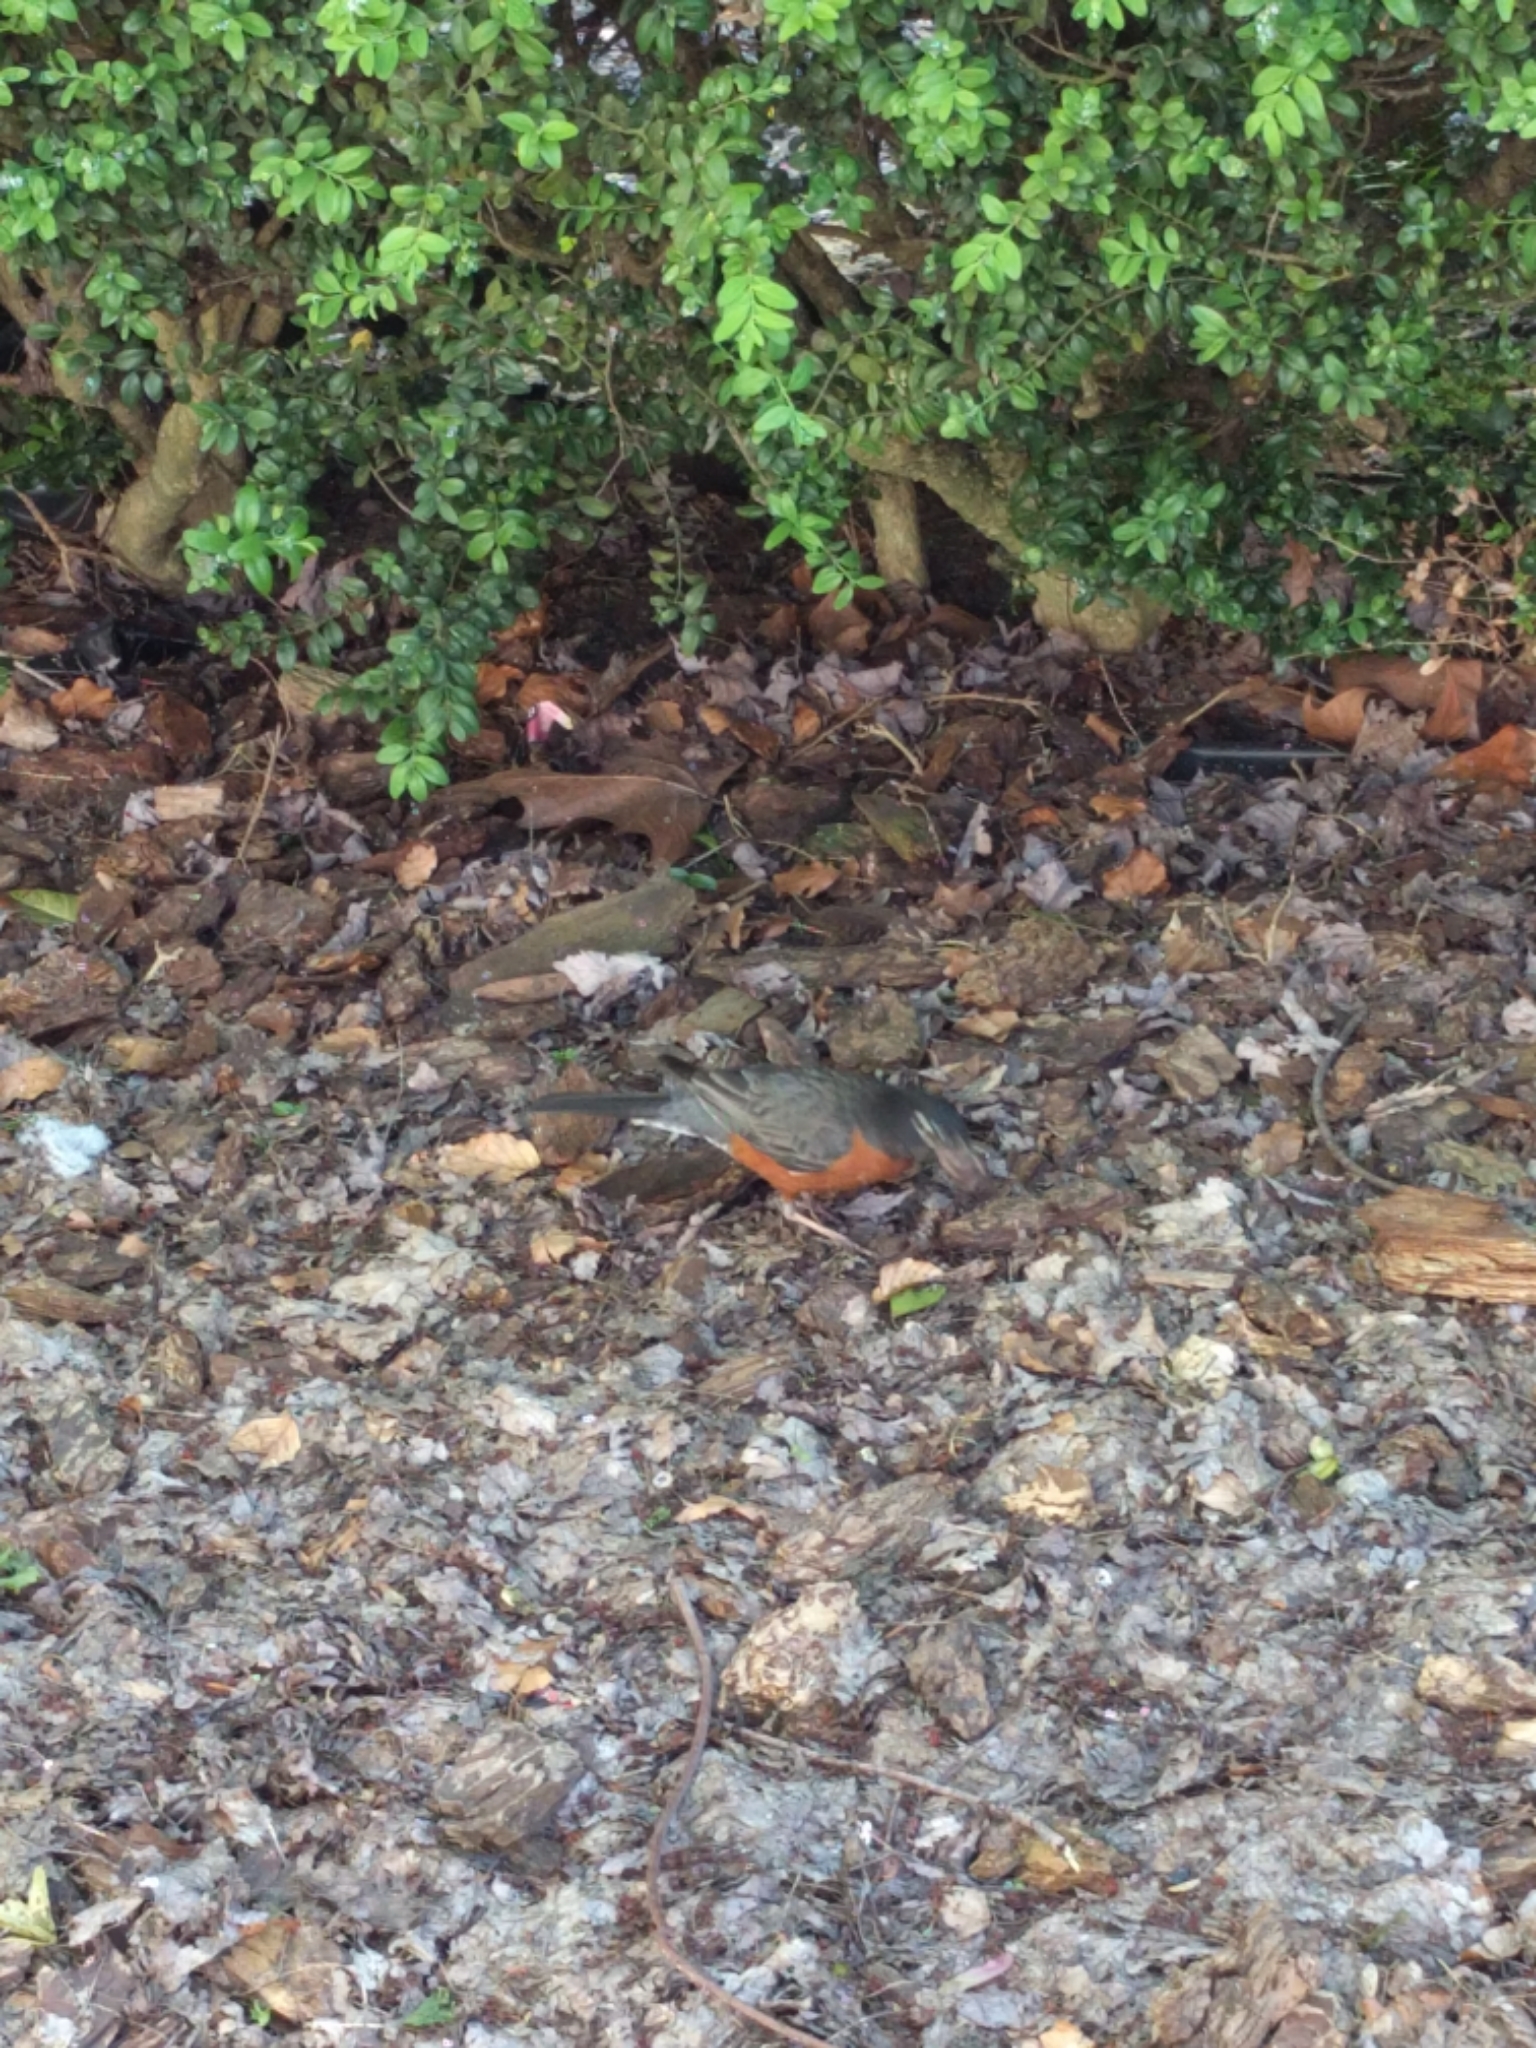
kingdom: Animalia
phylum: Chordata
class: Aves
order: Passeriformes
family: Turdidae
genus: Turdus
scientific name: Turdus migratorius
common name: American robin
